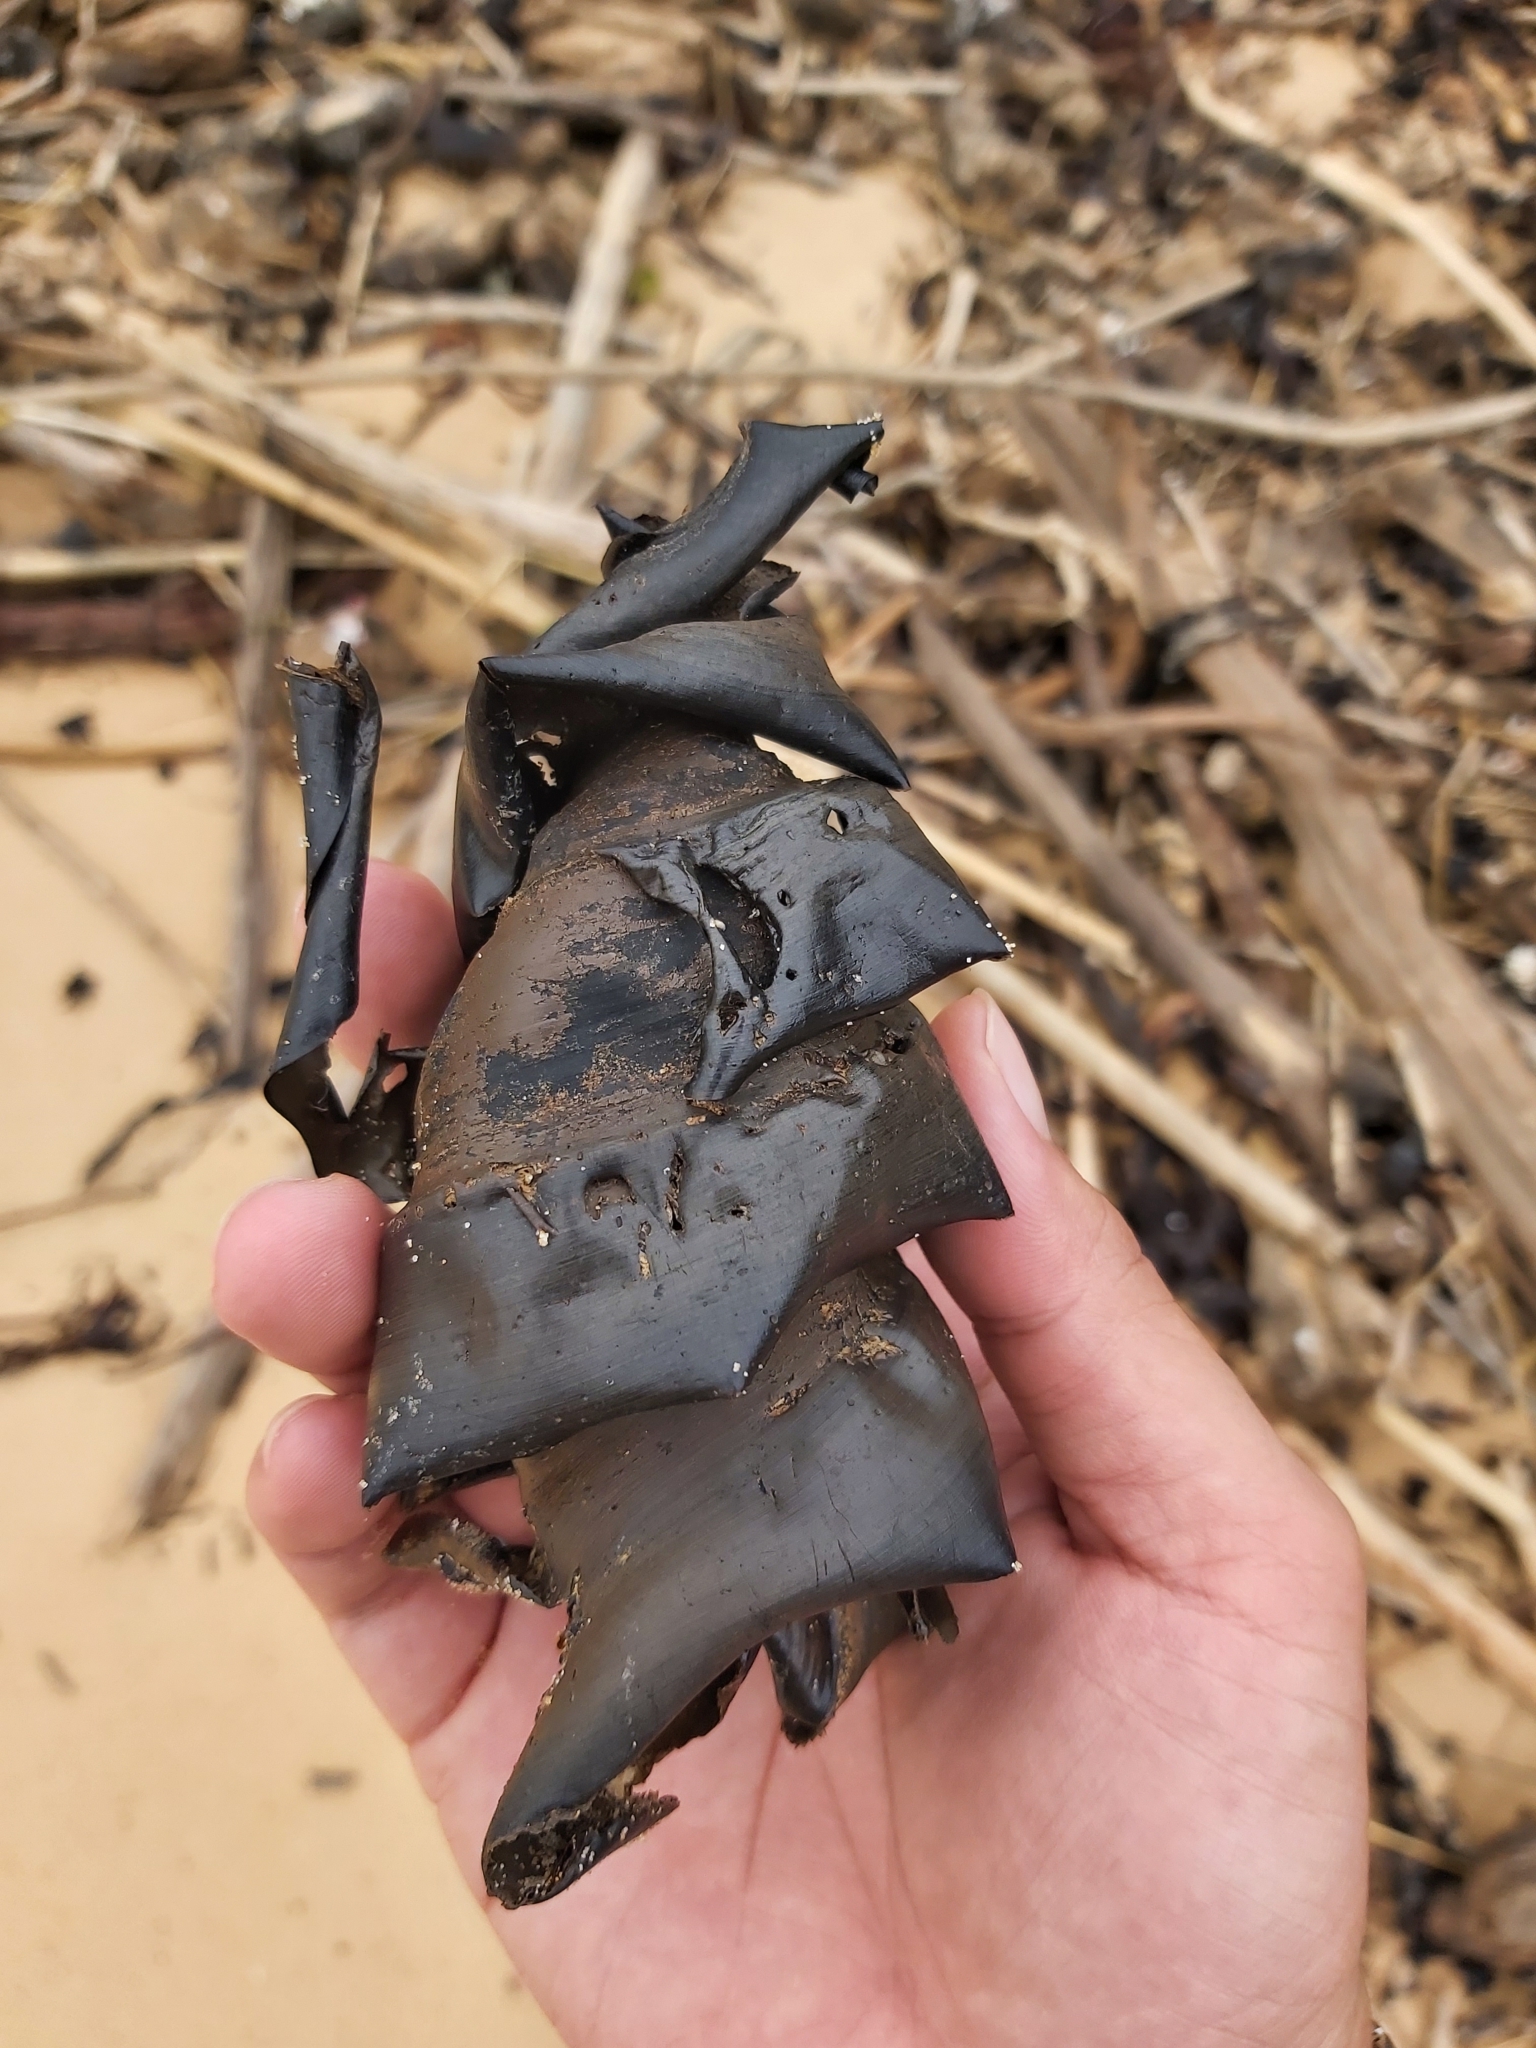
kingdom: Animalia
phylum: Chordata
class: Elasmobranchii
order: Heterodontiformes
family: Heterodontidae
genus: Heterodontus
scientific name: Heterodontus portusjacksoni
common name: Port jackson shark
